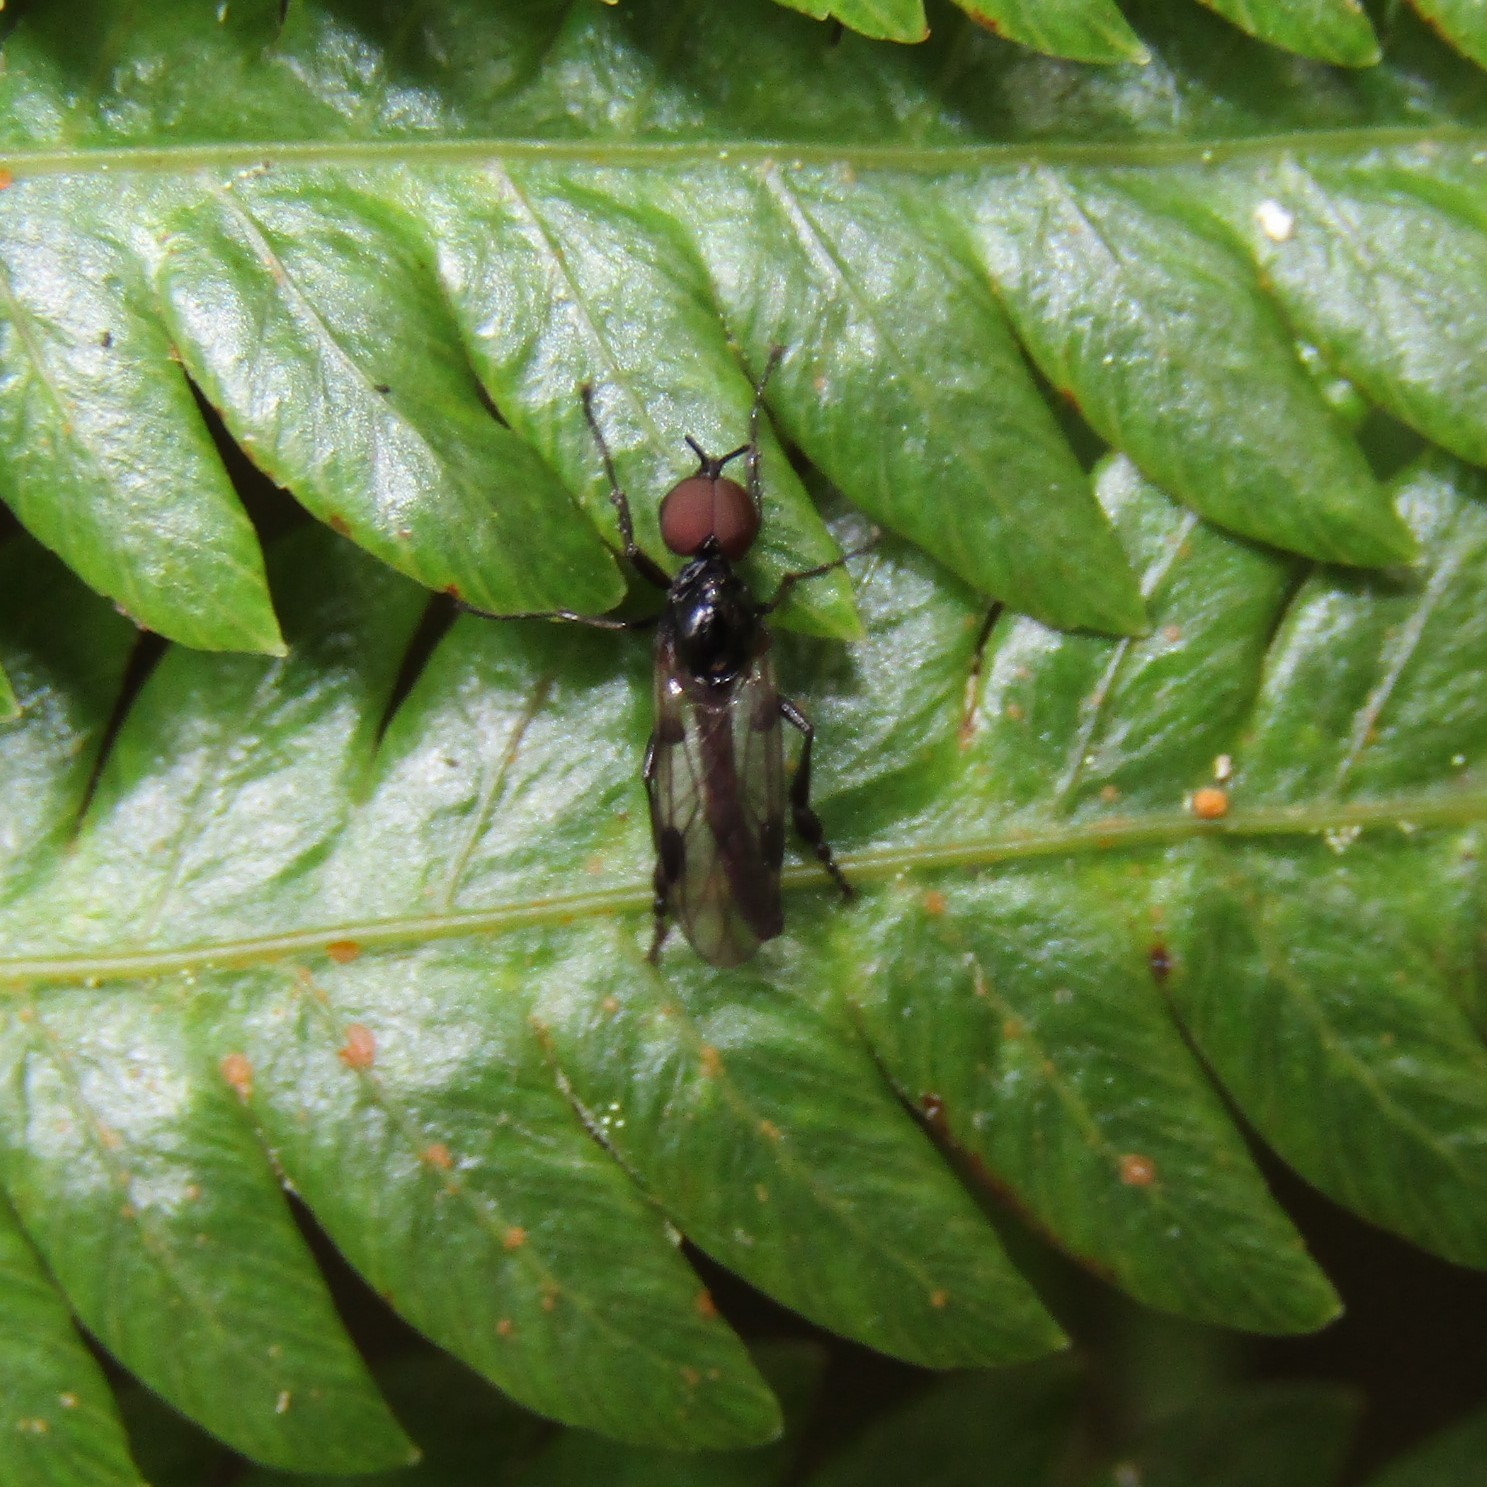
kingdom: Animalia
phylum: Arthropoda
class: Insecta
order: Diptera
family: Bibionidae
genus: Dilophus
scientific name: Dilophus segnis
